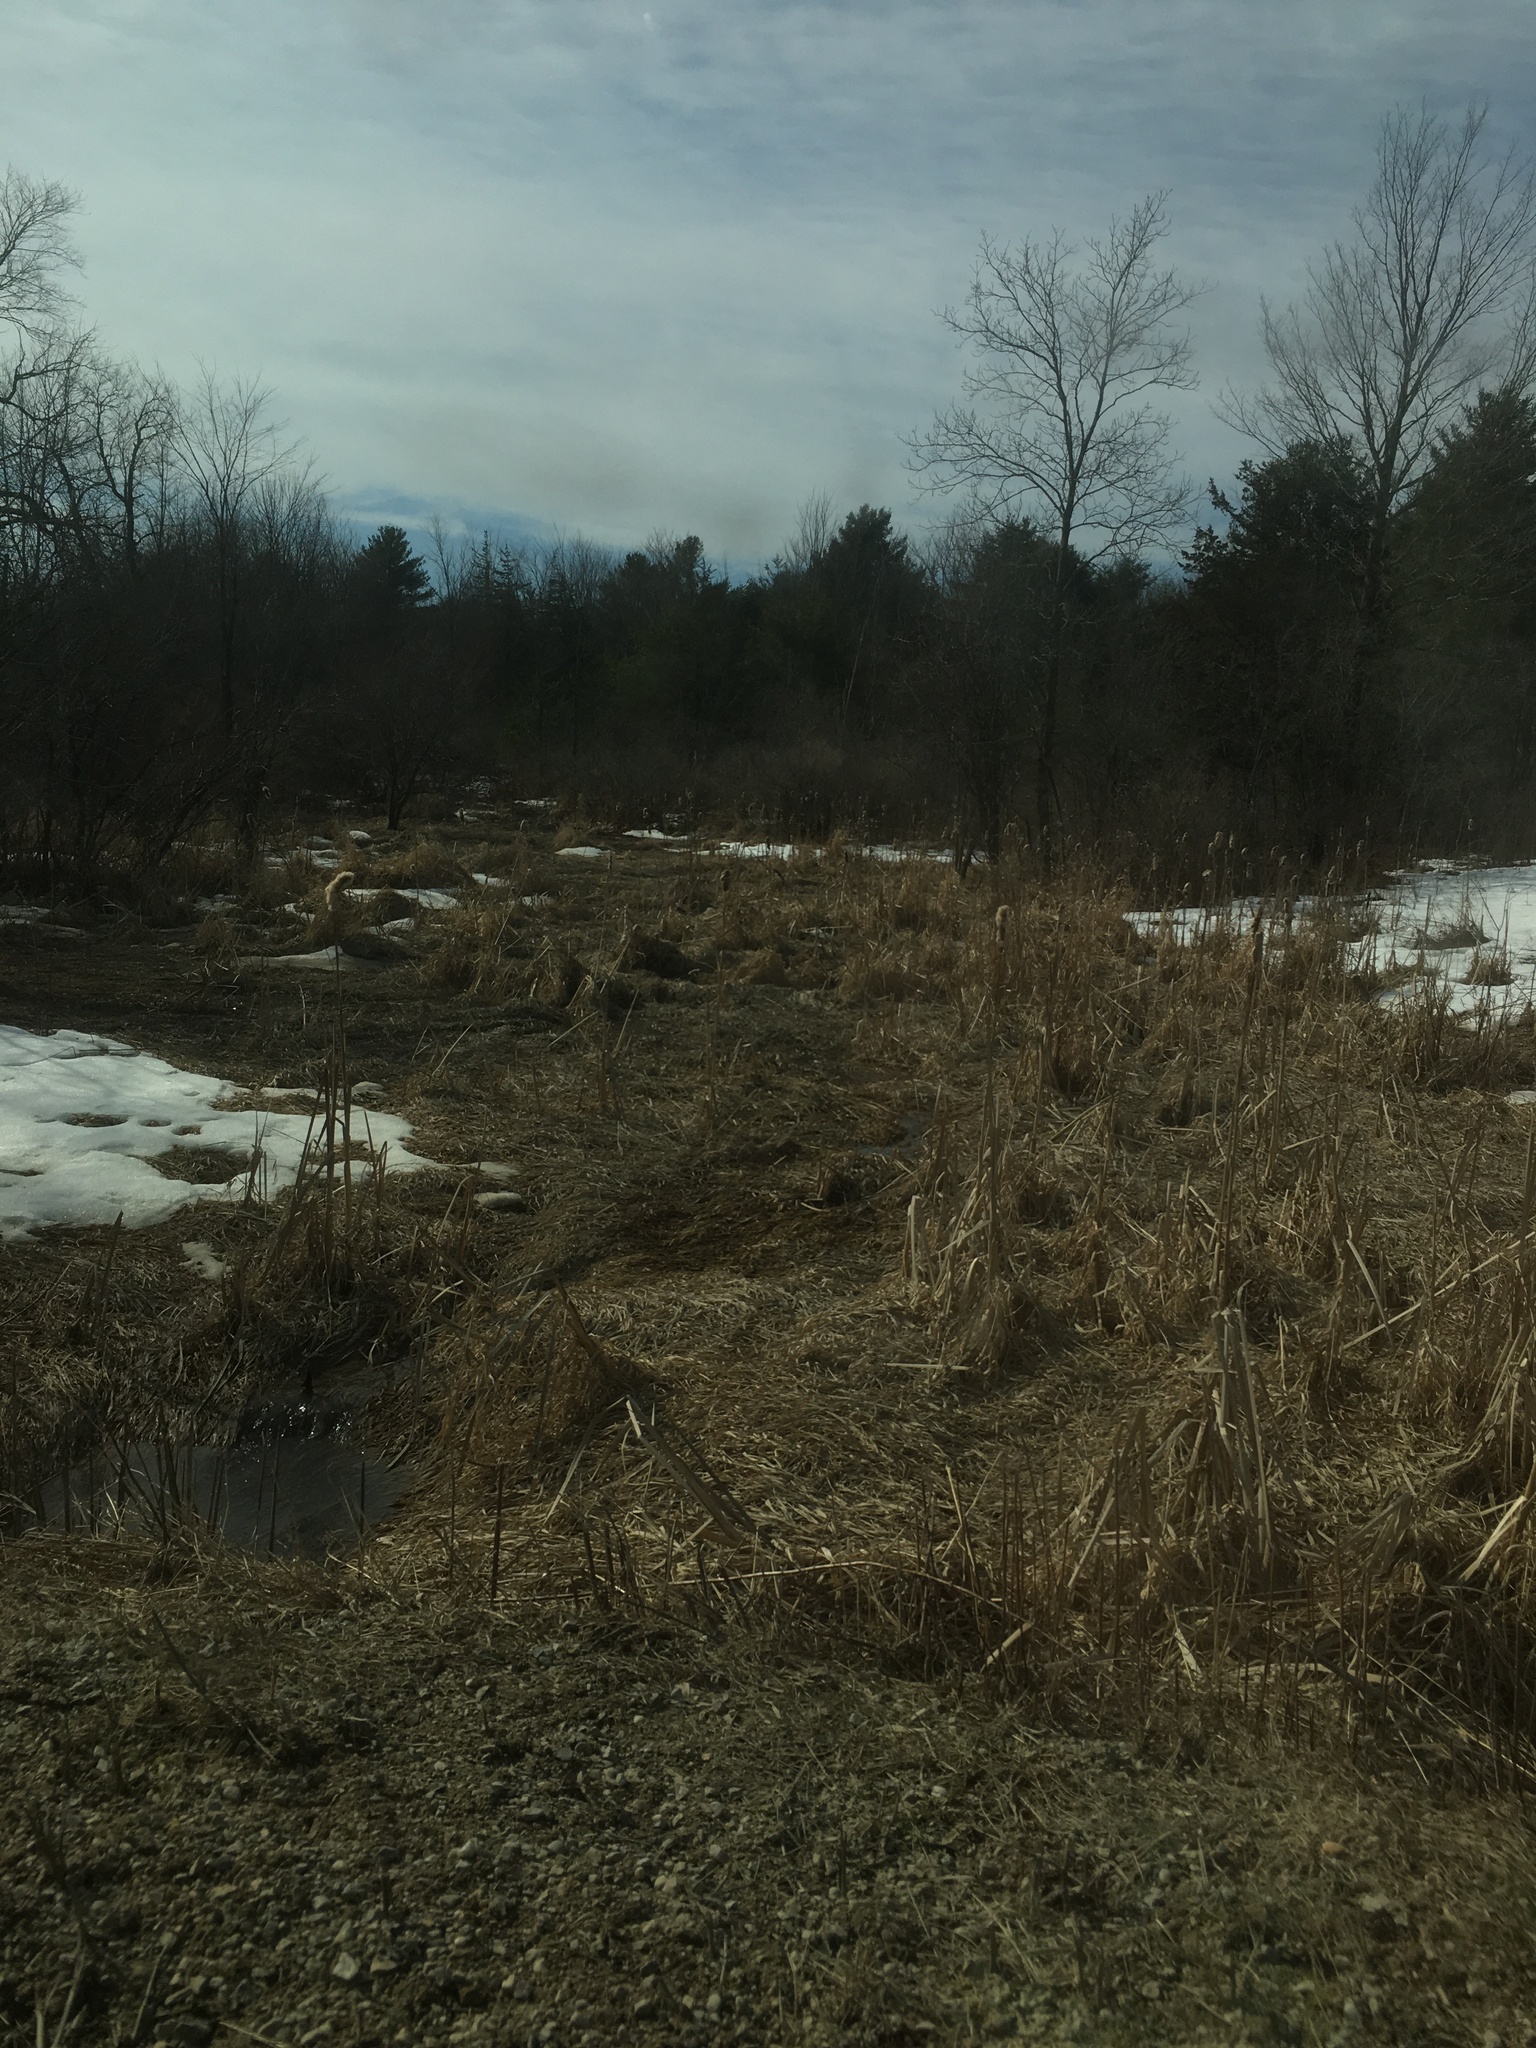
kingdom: Plantae
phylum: Tracheophyta
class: Liliopsida
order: Poales
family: Typhaceae
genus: Typha
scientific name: Typha latifolia
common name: Broadleaf cattail
